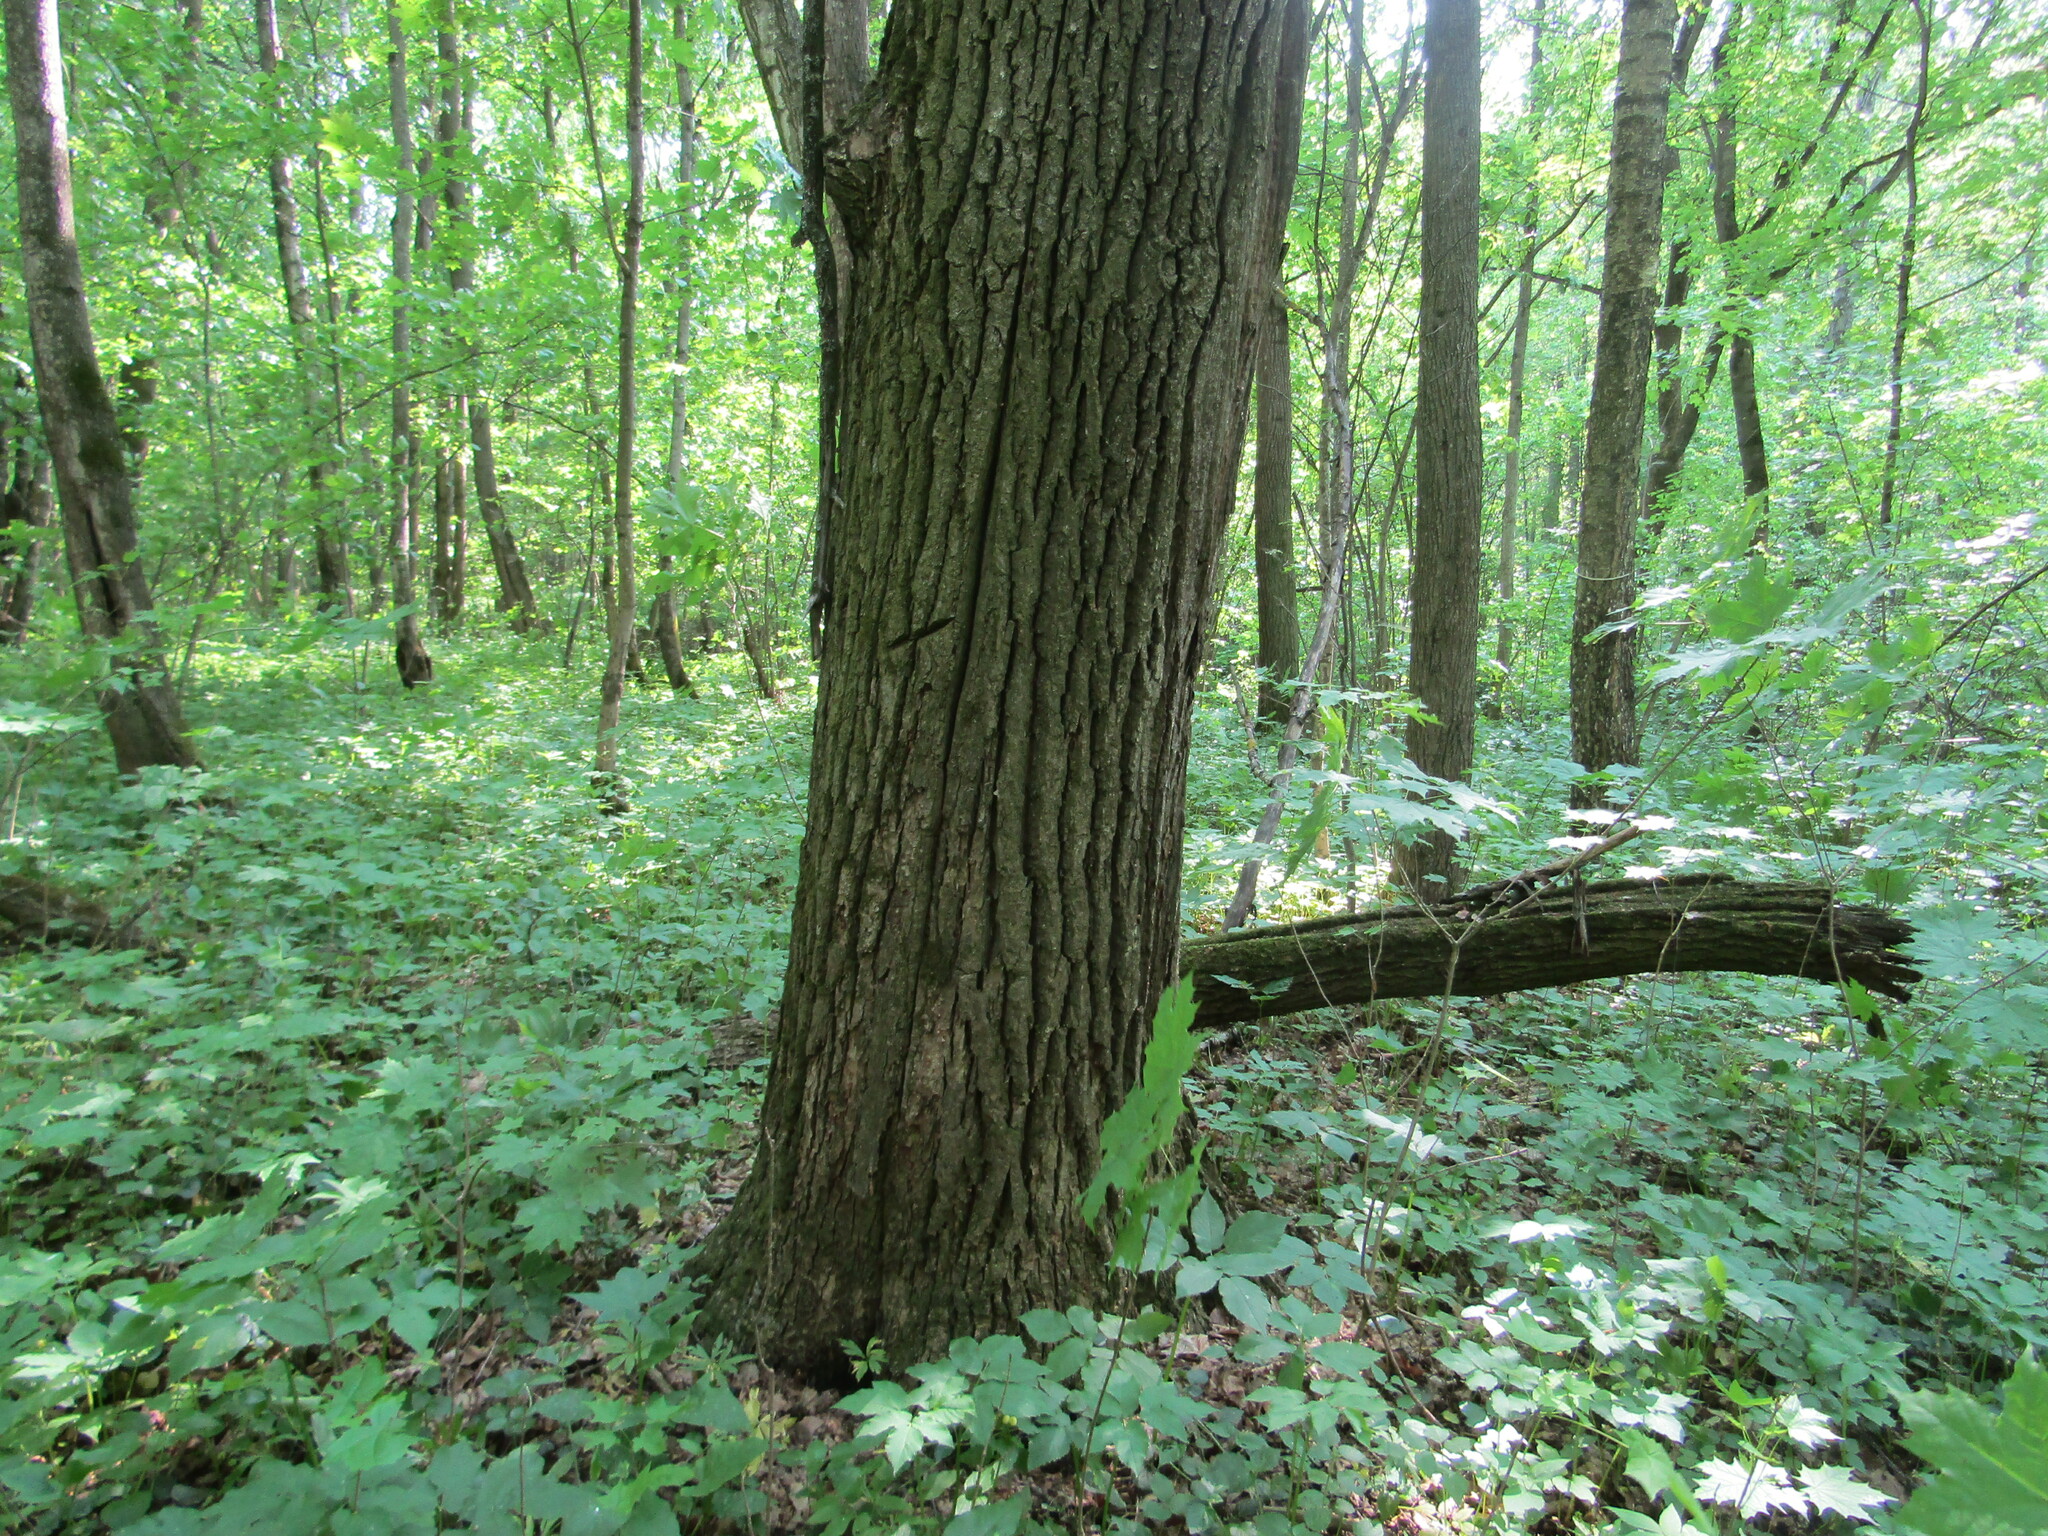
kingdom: Plantae
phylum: Tracheophyta
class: Magnoliopsida
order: Fagales
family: Fagaceae
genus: Quercus
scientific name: Quercus robur
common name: Pedunculate oak
